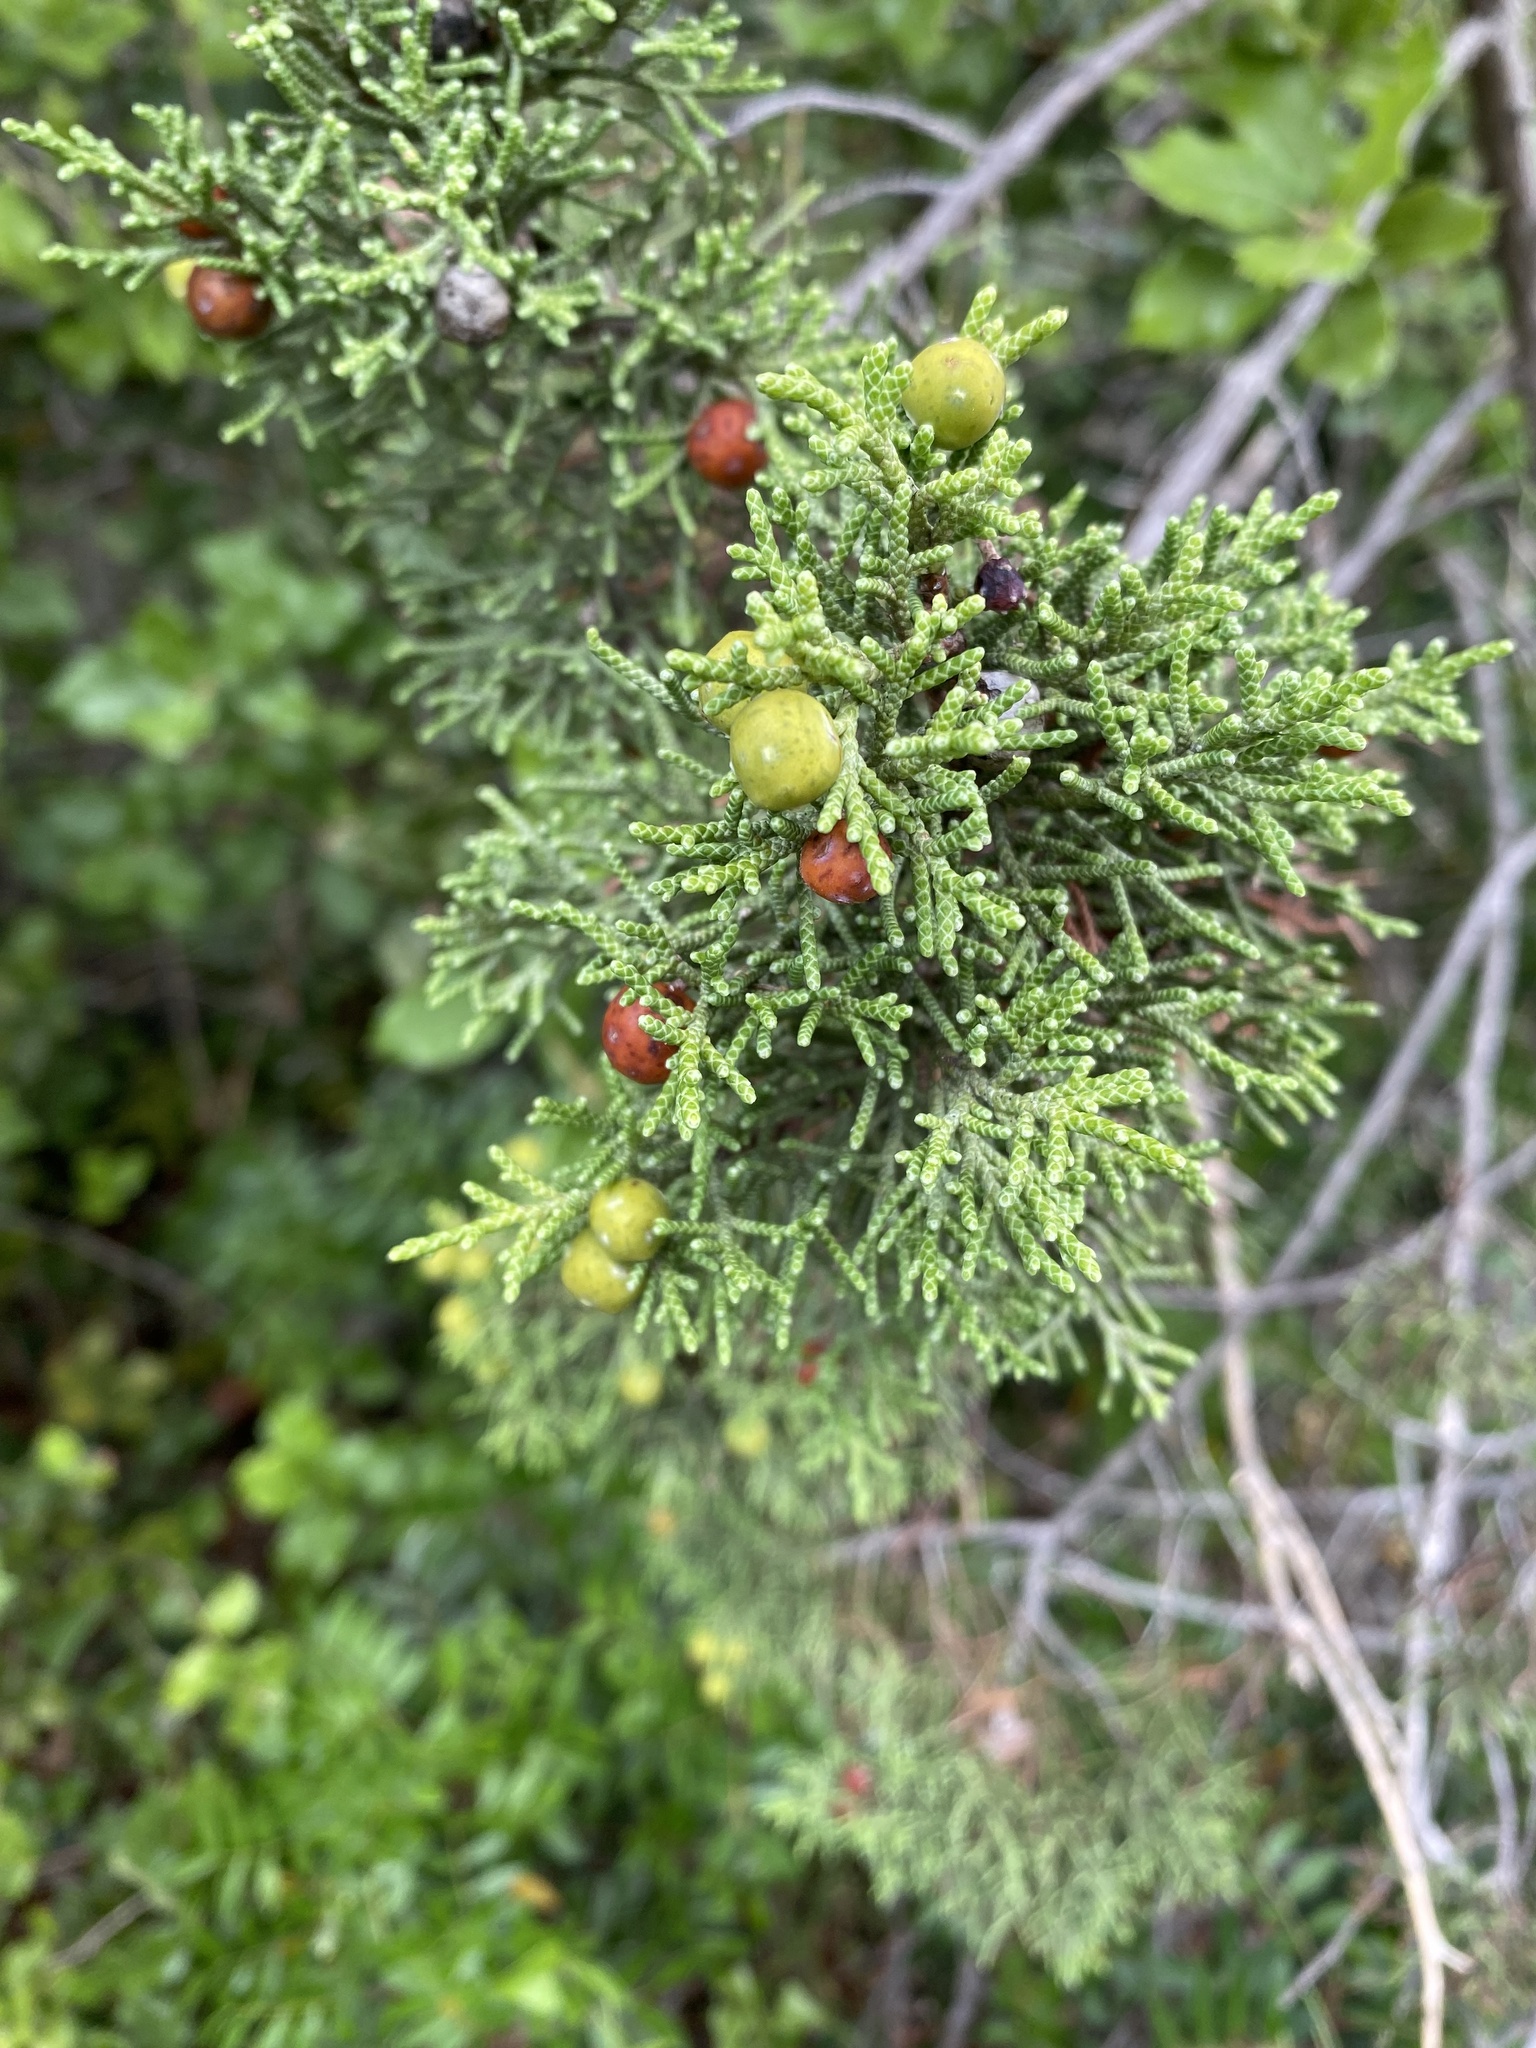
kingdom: Plantae
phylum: Tracheophyta
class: Pinopsida
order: Pinales
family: Cupressaceae
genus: Juniperus
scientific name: Juniperus phoenicea
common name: Phoenician juniper
